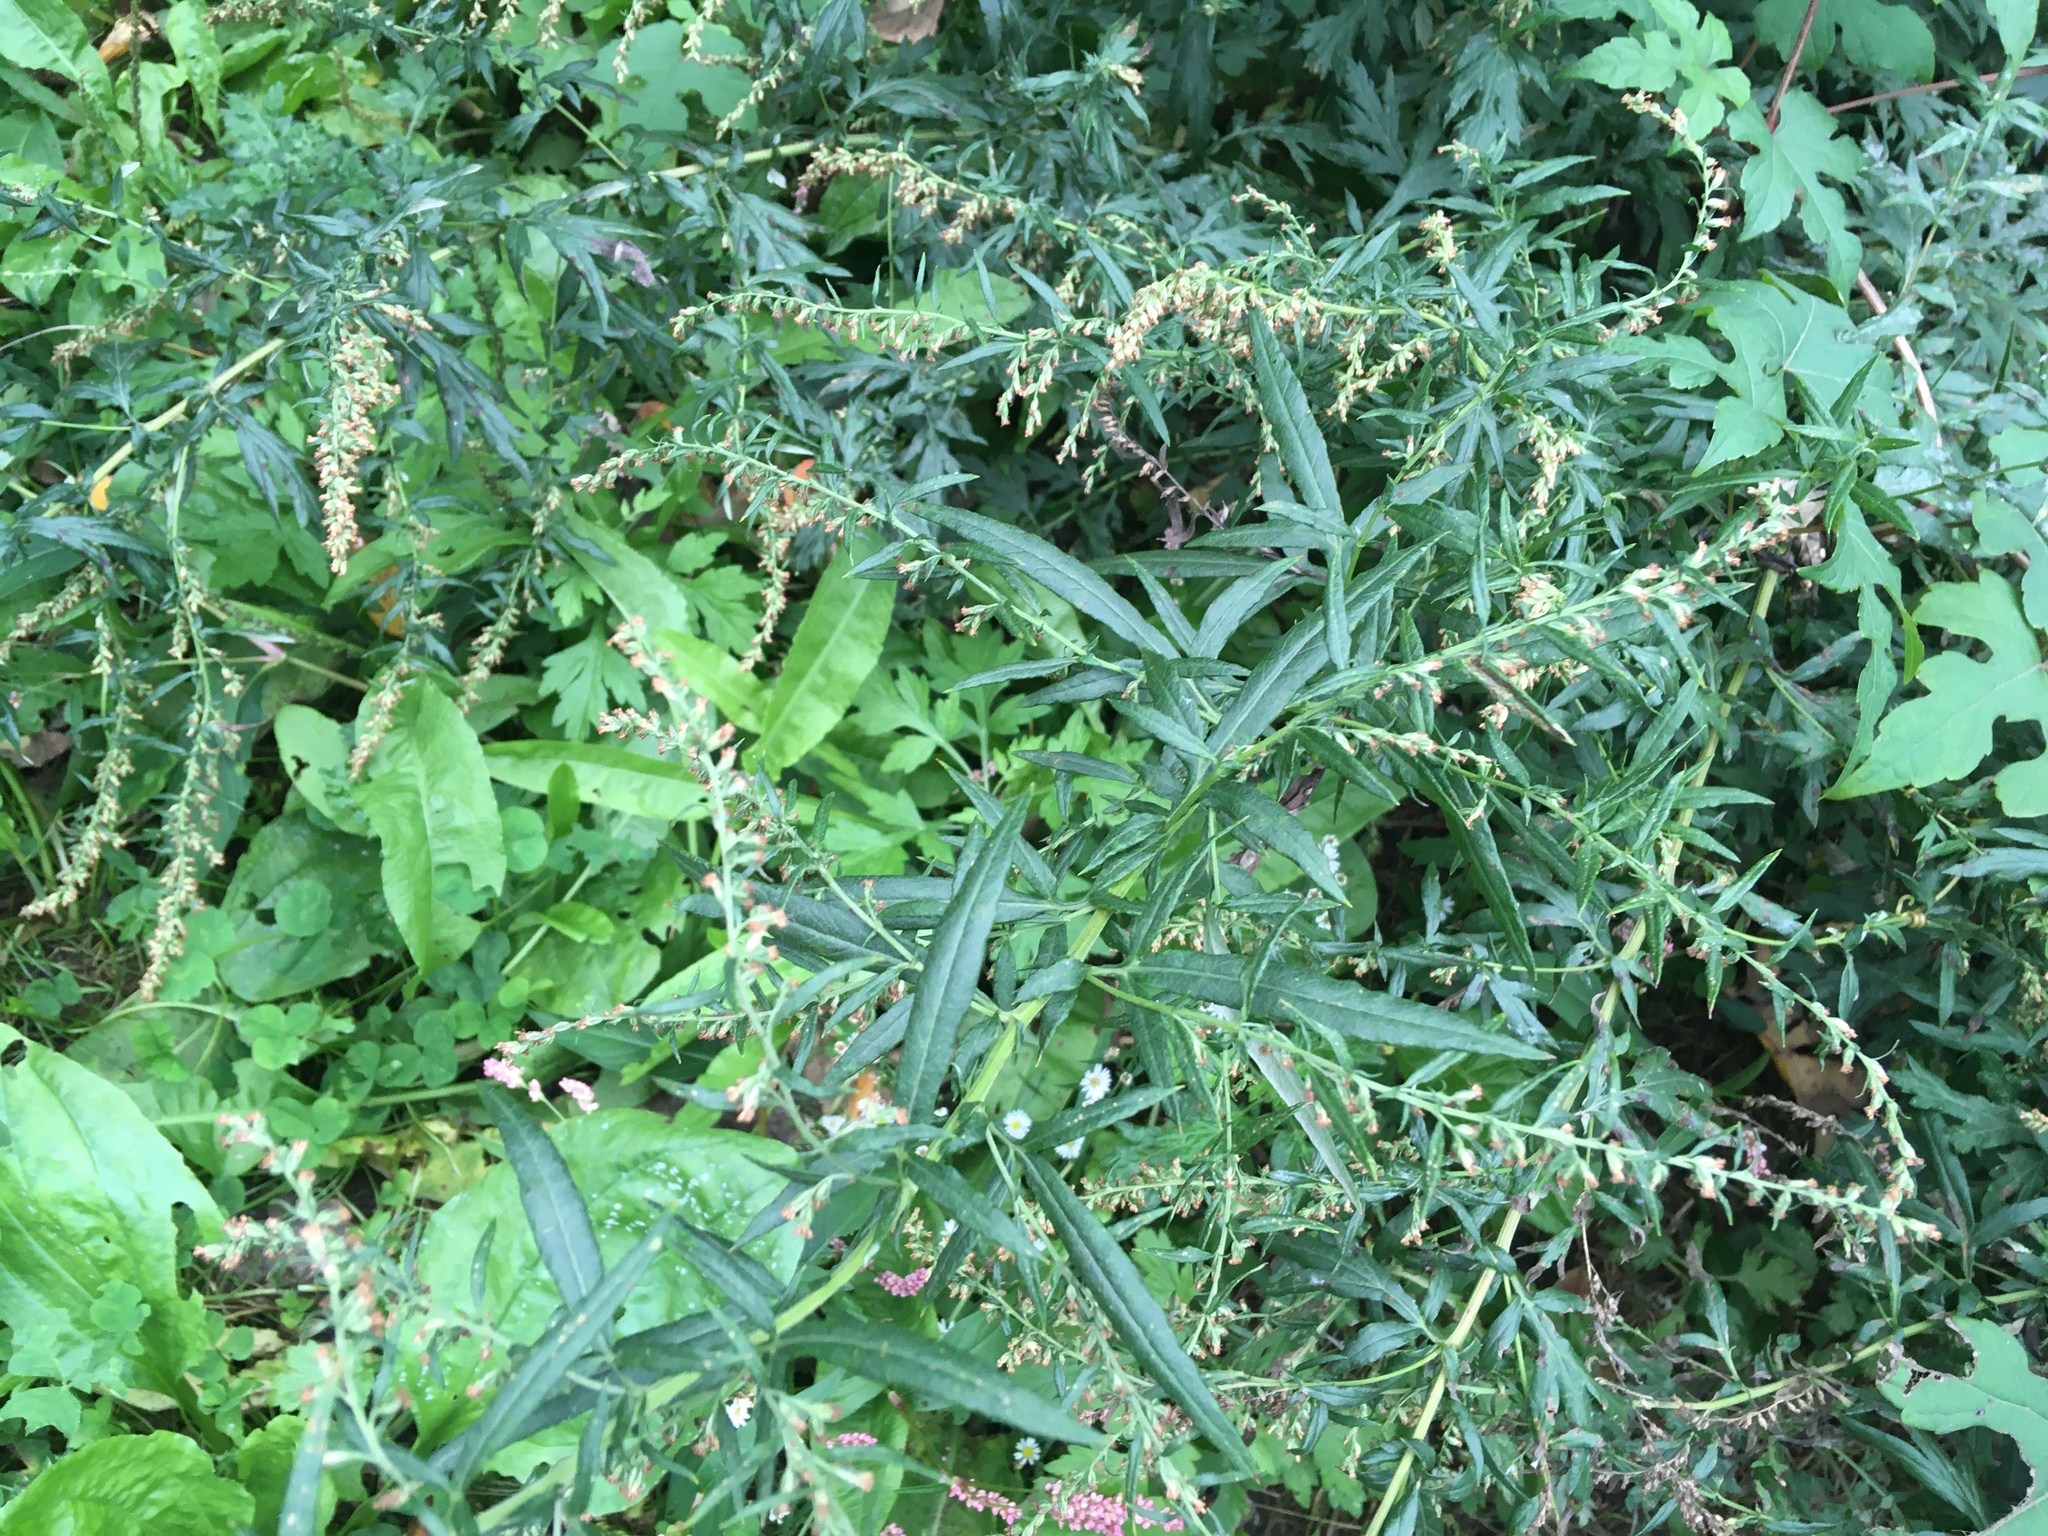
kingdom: Plantae
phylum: Tracheophyta
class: Magnoliopsida
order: Asterales
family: Asteraceae
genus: Artemisia
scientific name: Artemisia vulgaris
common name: Mugwort
